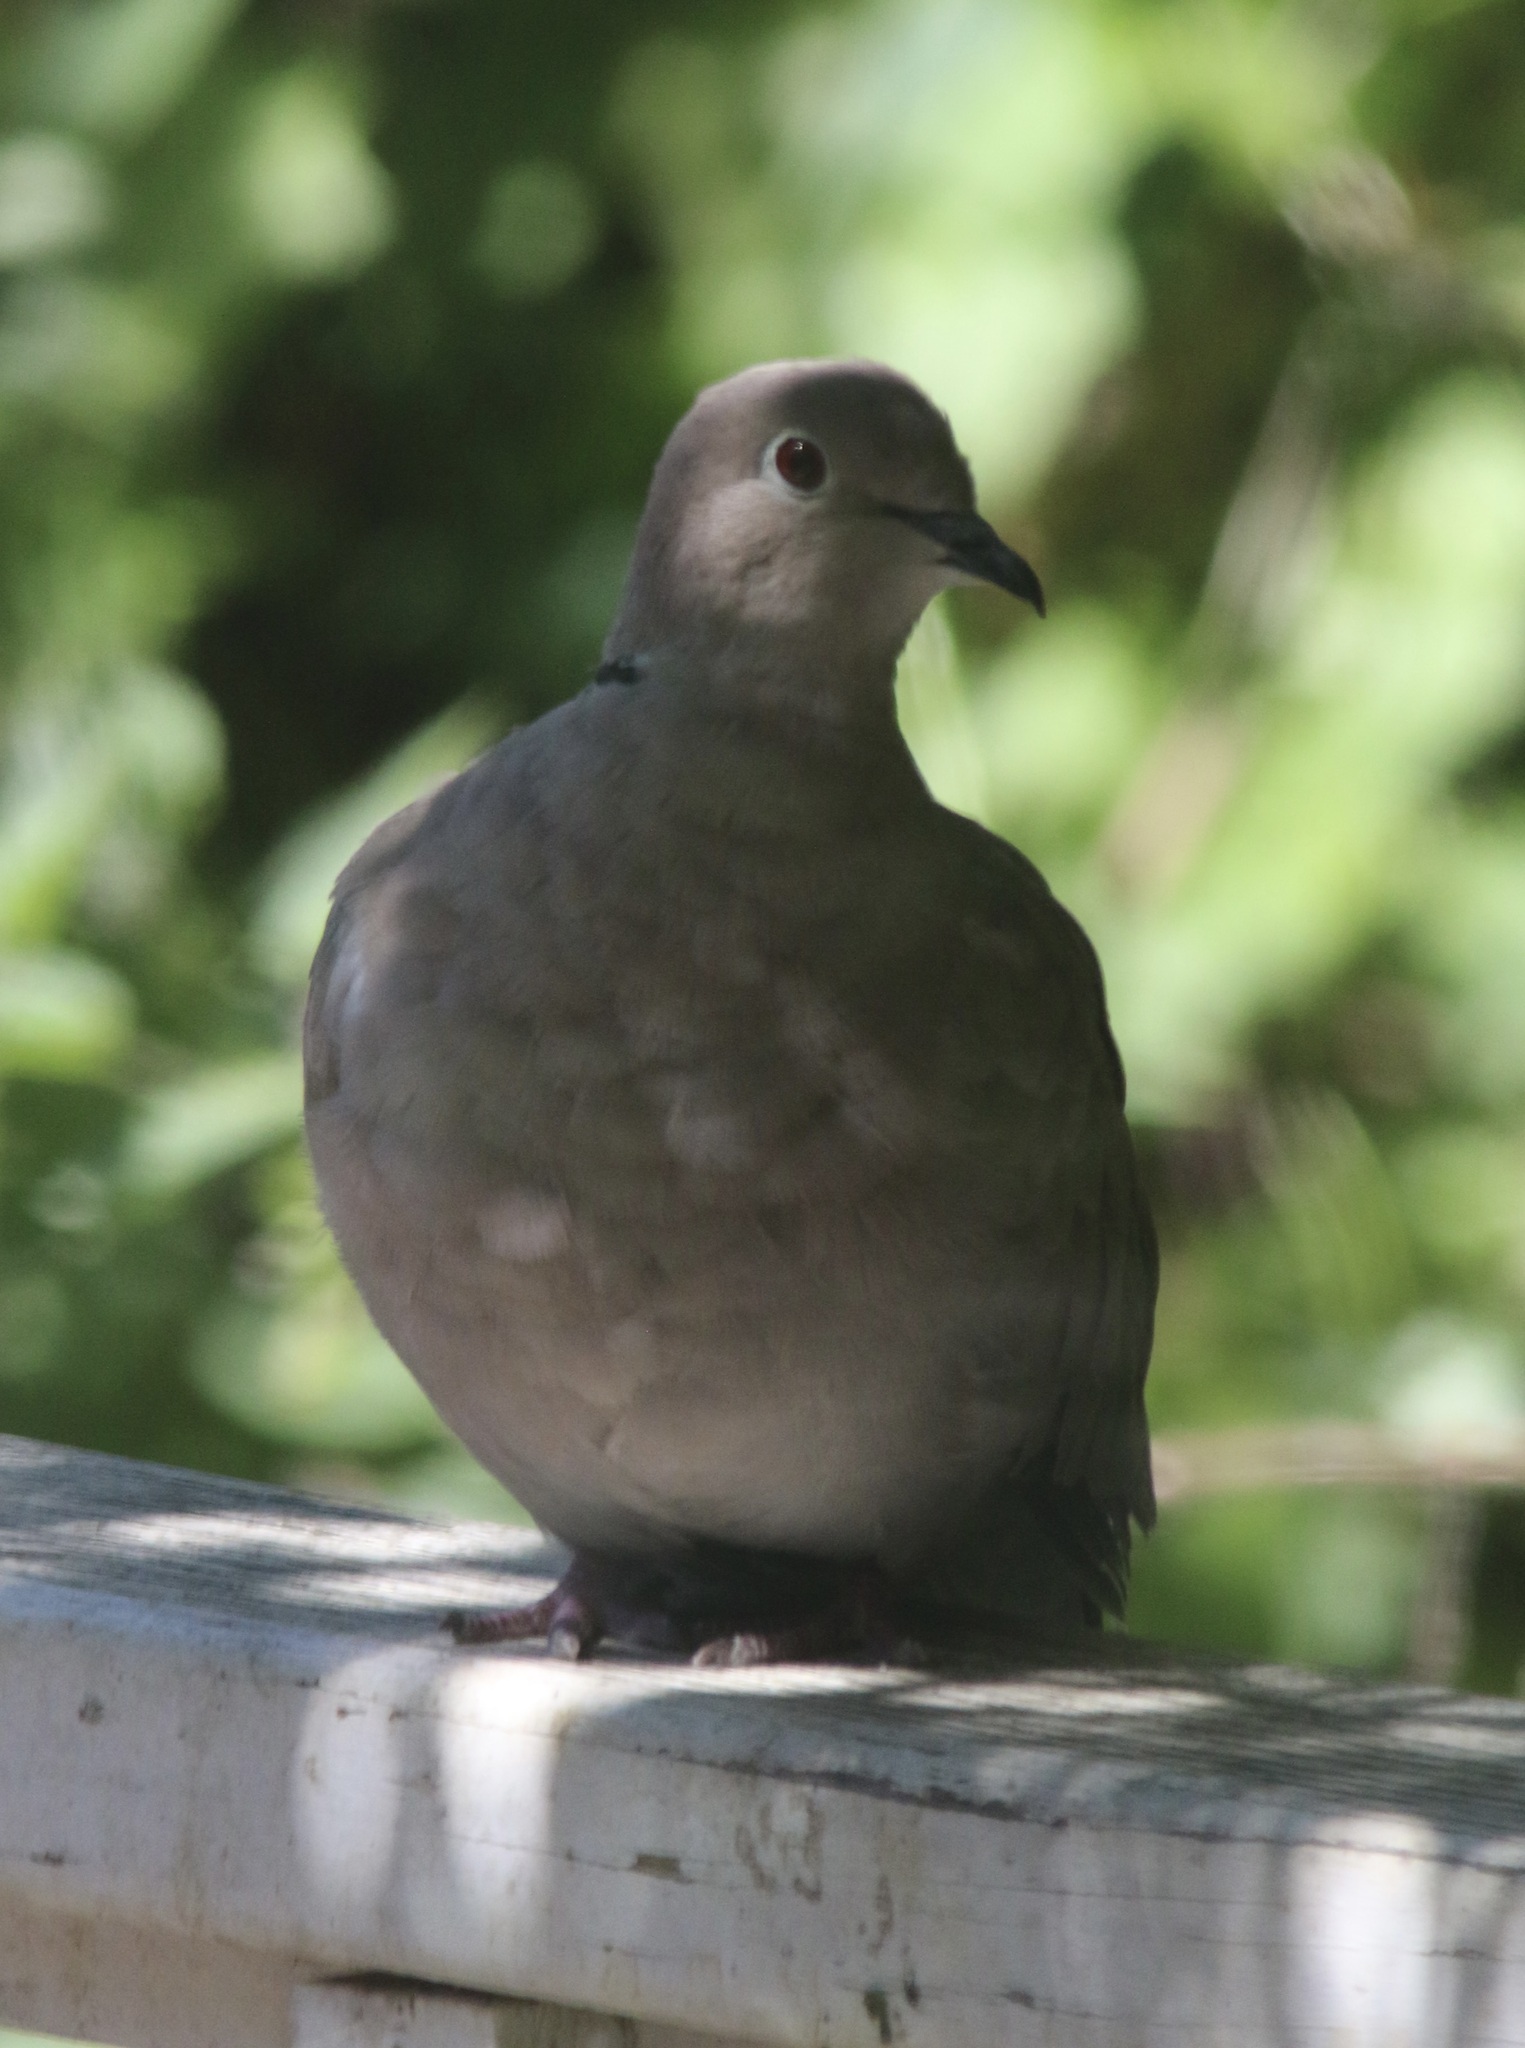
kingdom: Animalia
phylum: Chordata
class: Aves
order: Columbiformes
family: Columbidae
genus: Streptopelia
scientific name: Streptopelia decaocto
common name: Eurasian collared dove
